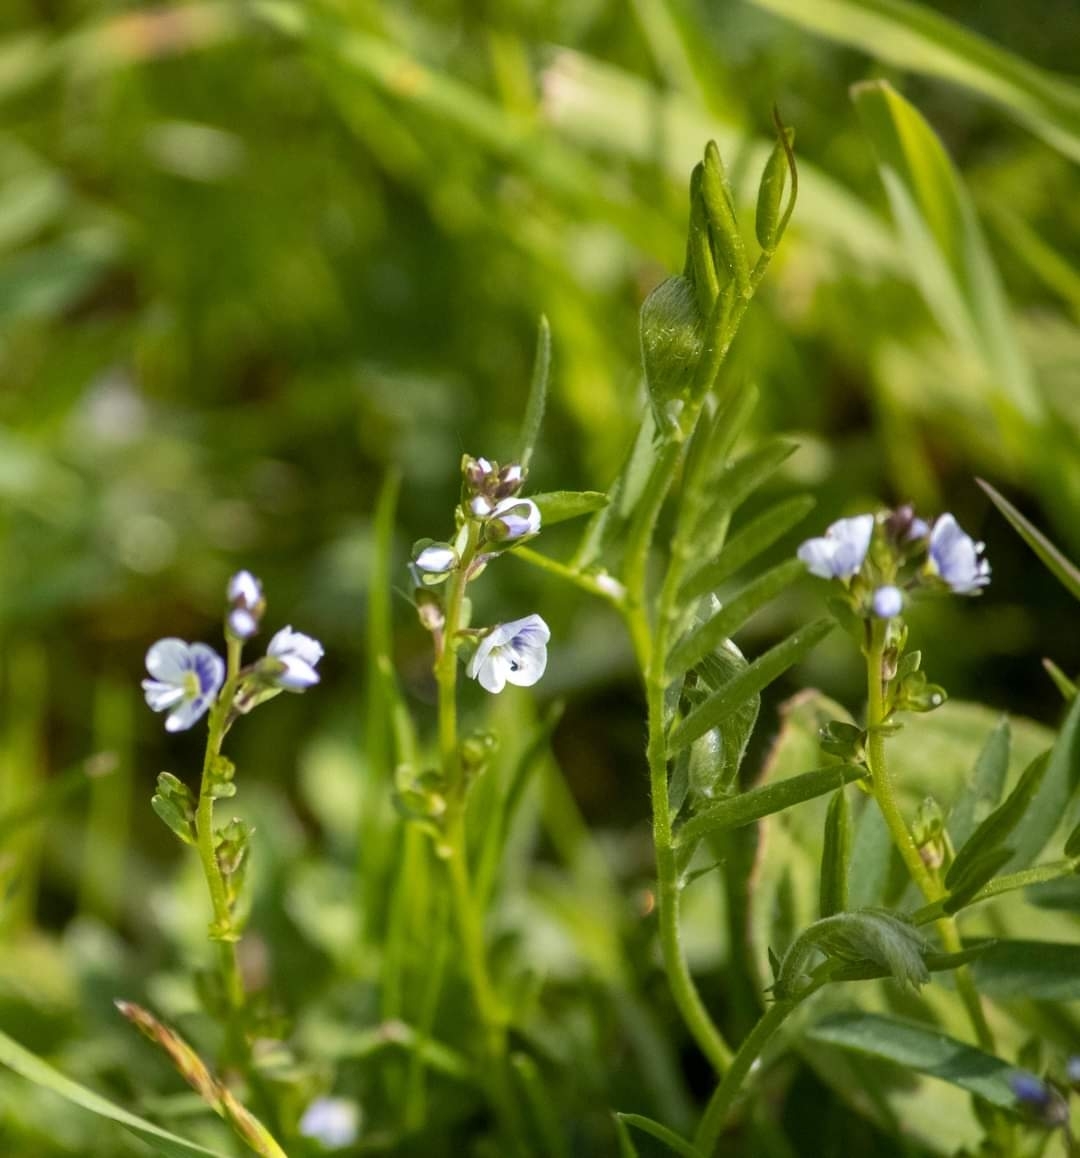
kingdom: Plantae
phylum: Tracheophyta
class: Magnoliopsida
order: Lamiales
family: Plantaginaceae
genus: Veronica
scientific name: Veronica serpyllifolia
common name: Thyme-leaved speedwell
